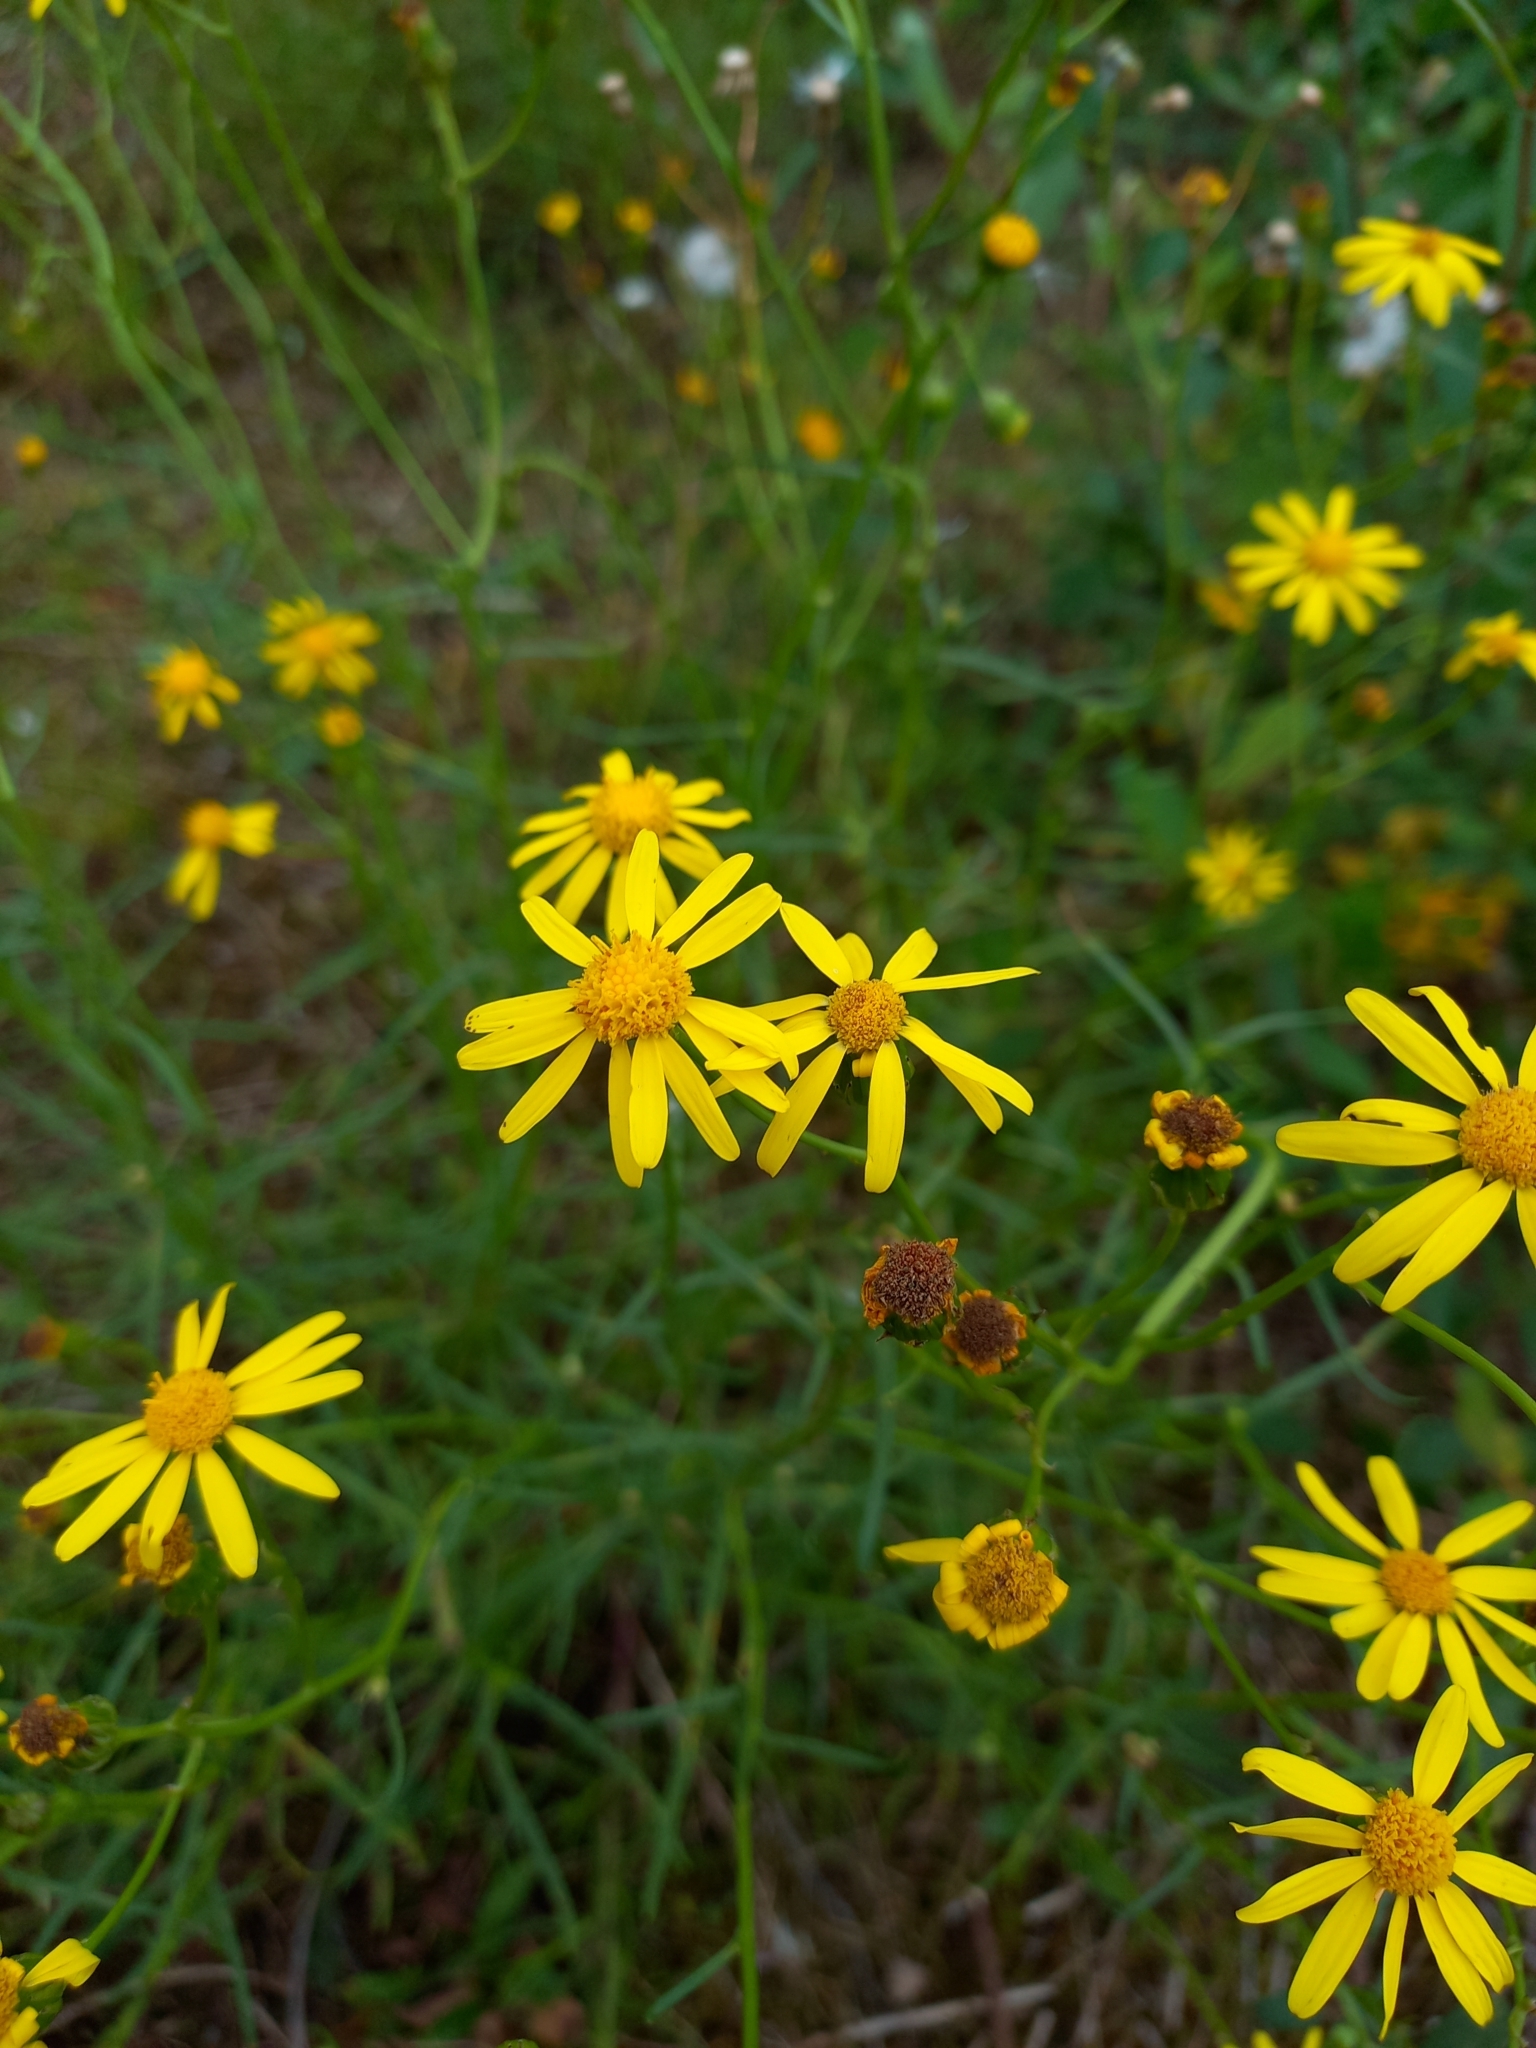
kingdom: Plantae
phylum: Tracheophyta
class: Magnoliopsida
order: Asterales
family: Asteraceae
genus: Senecio
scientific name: Senecio inaequidens
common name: Narrow-leaved ragwort
